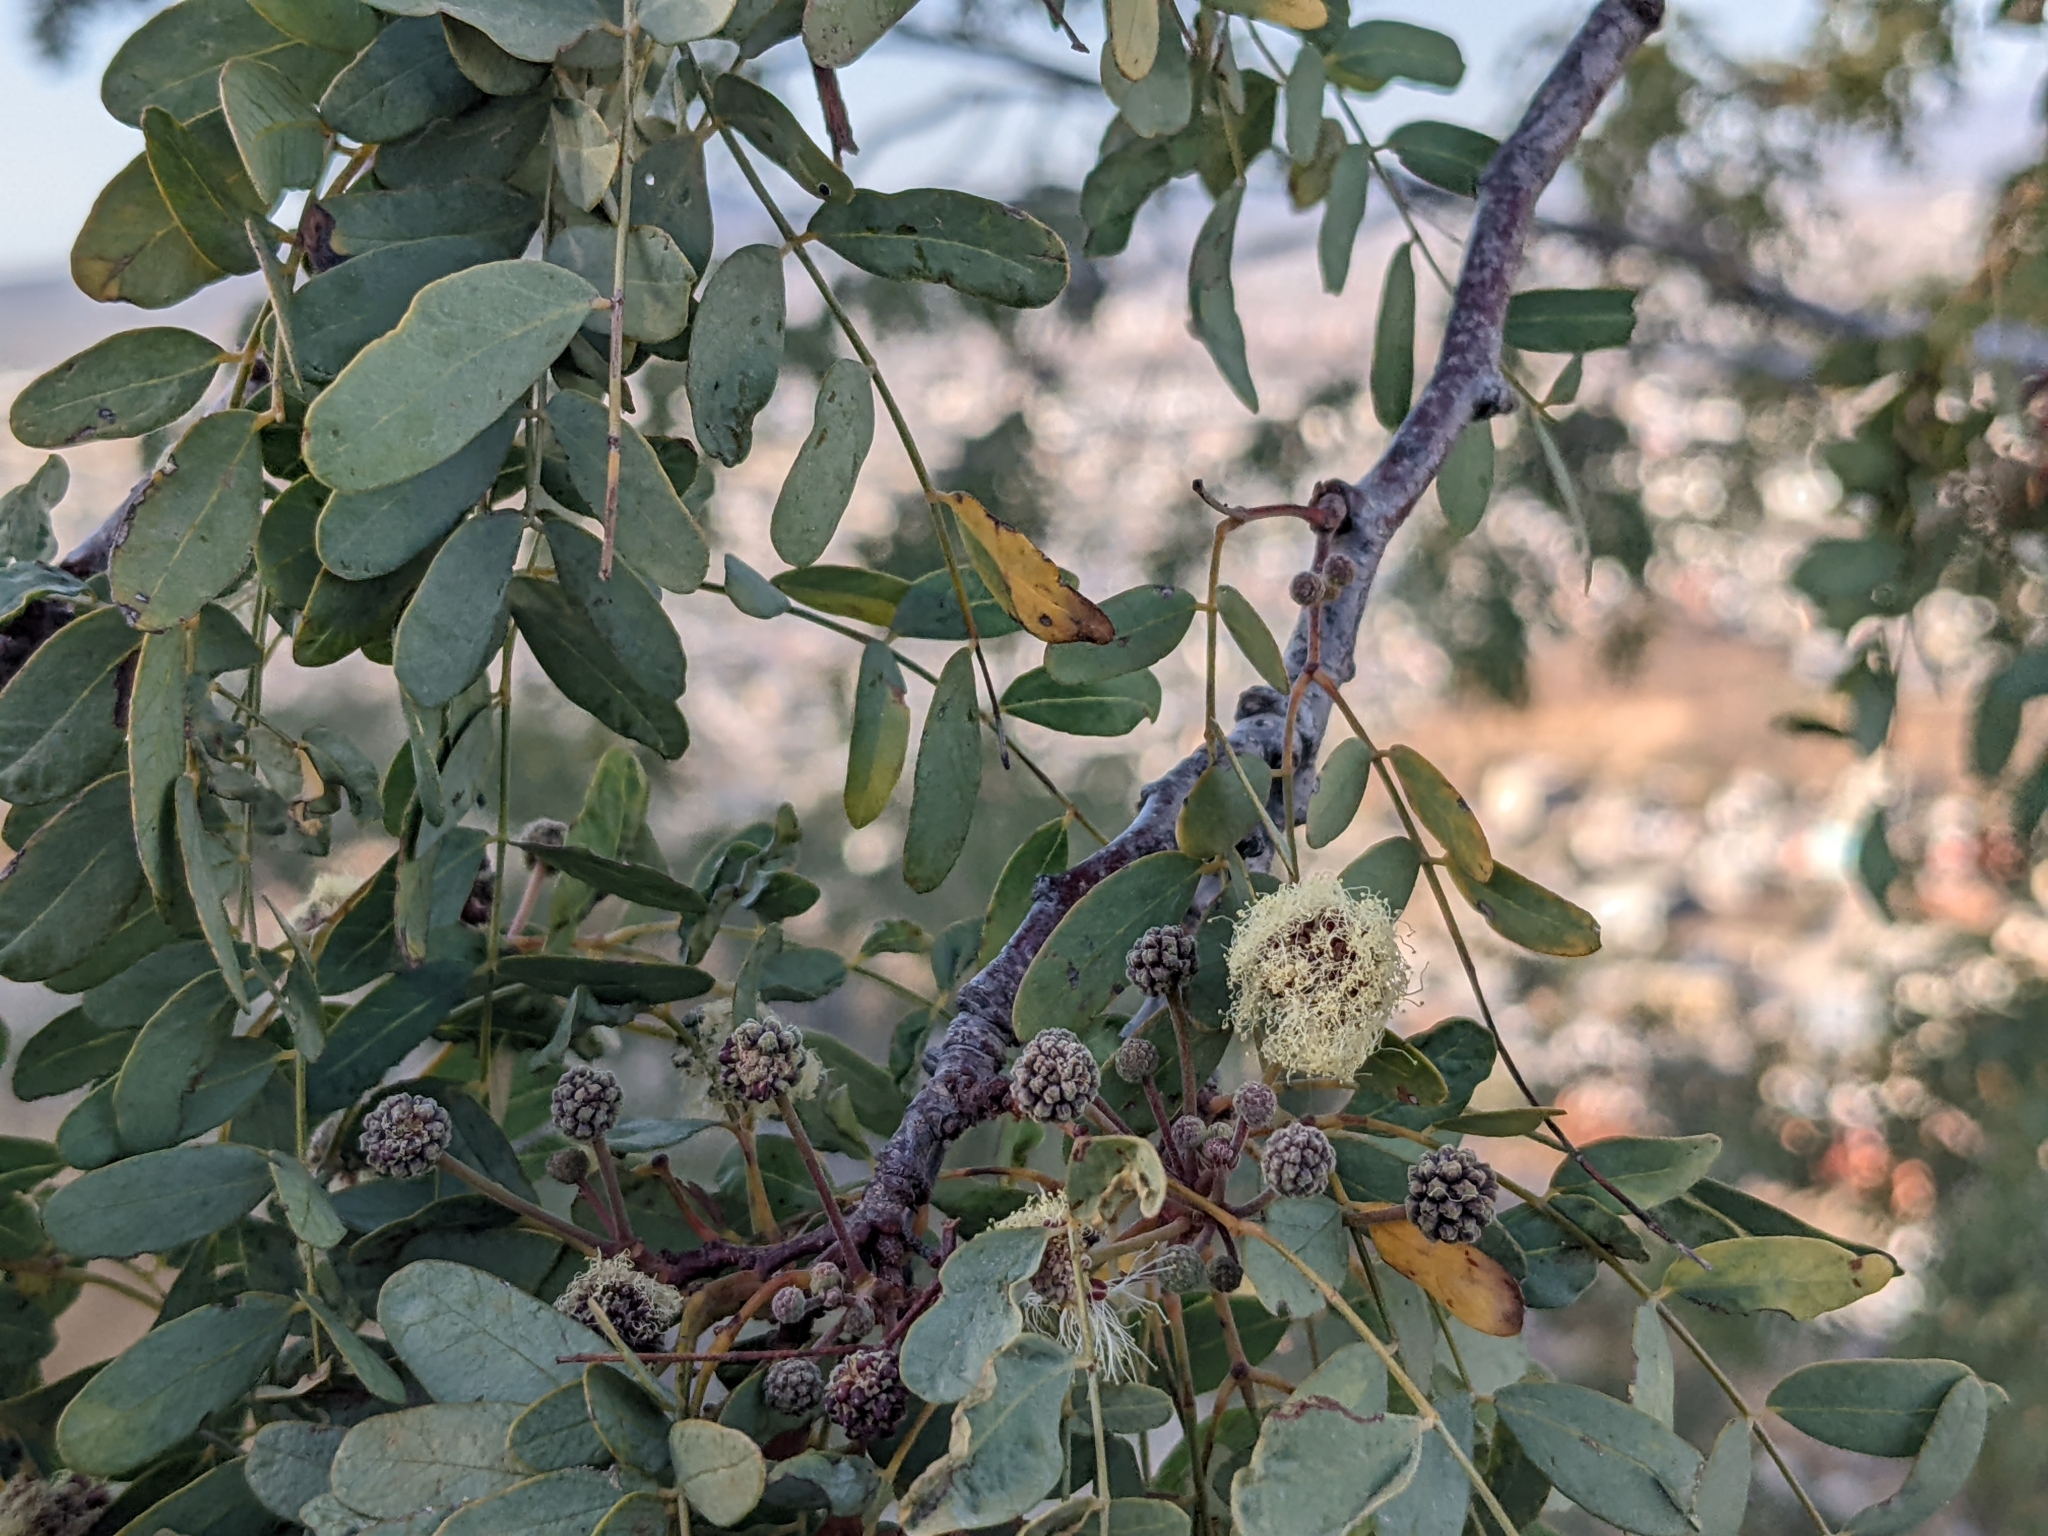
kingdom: Plantae
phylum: Tracheophyta
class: Magnoliopsida
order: Fabales
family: Fabaceae
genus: Lysiloma
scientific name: Lysiloma candidum
